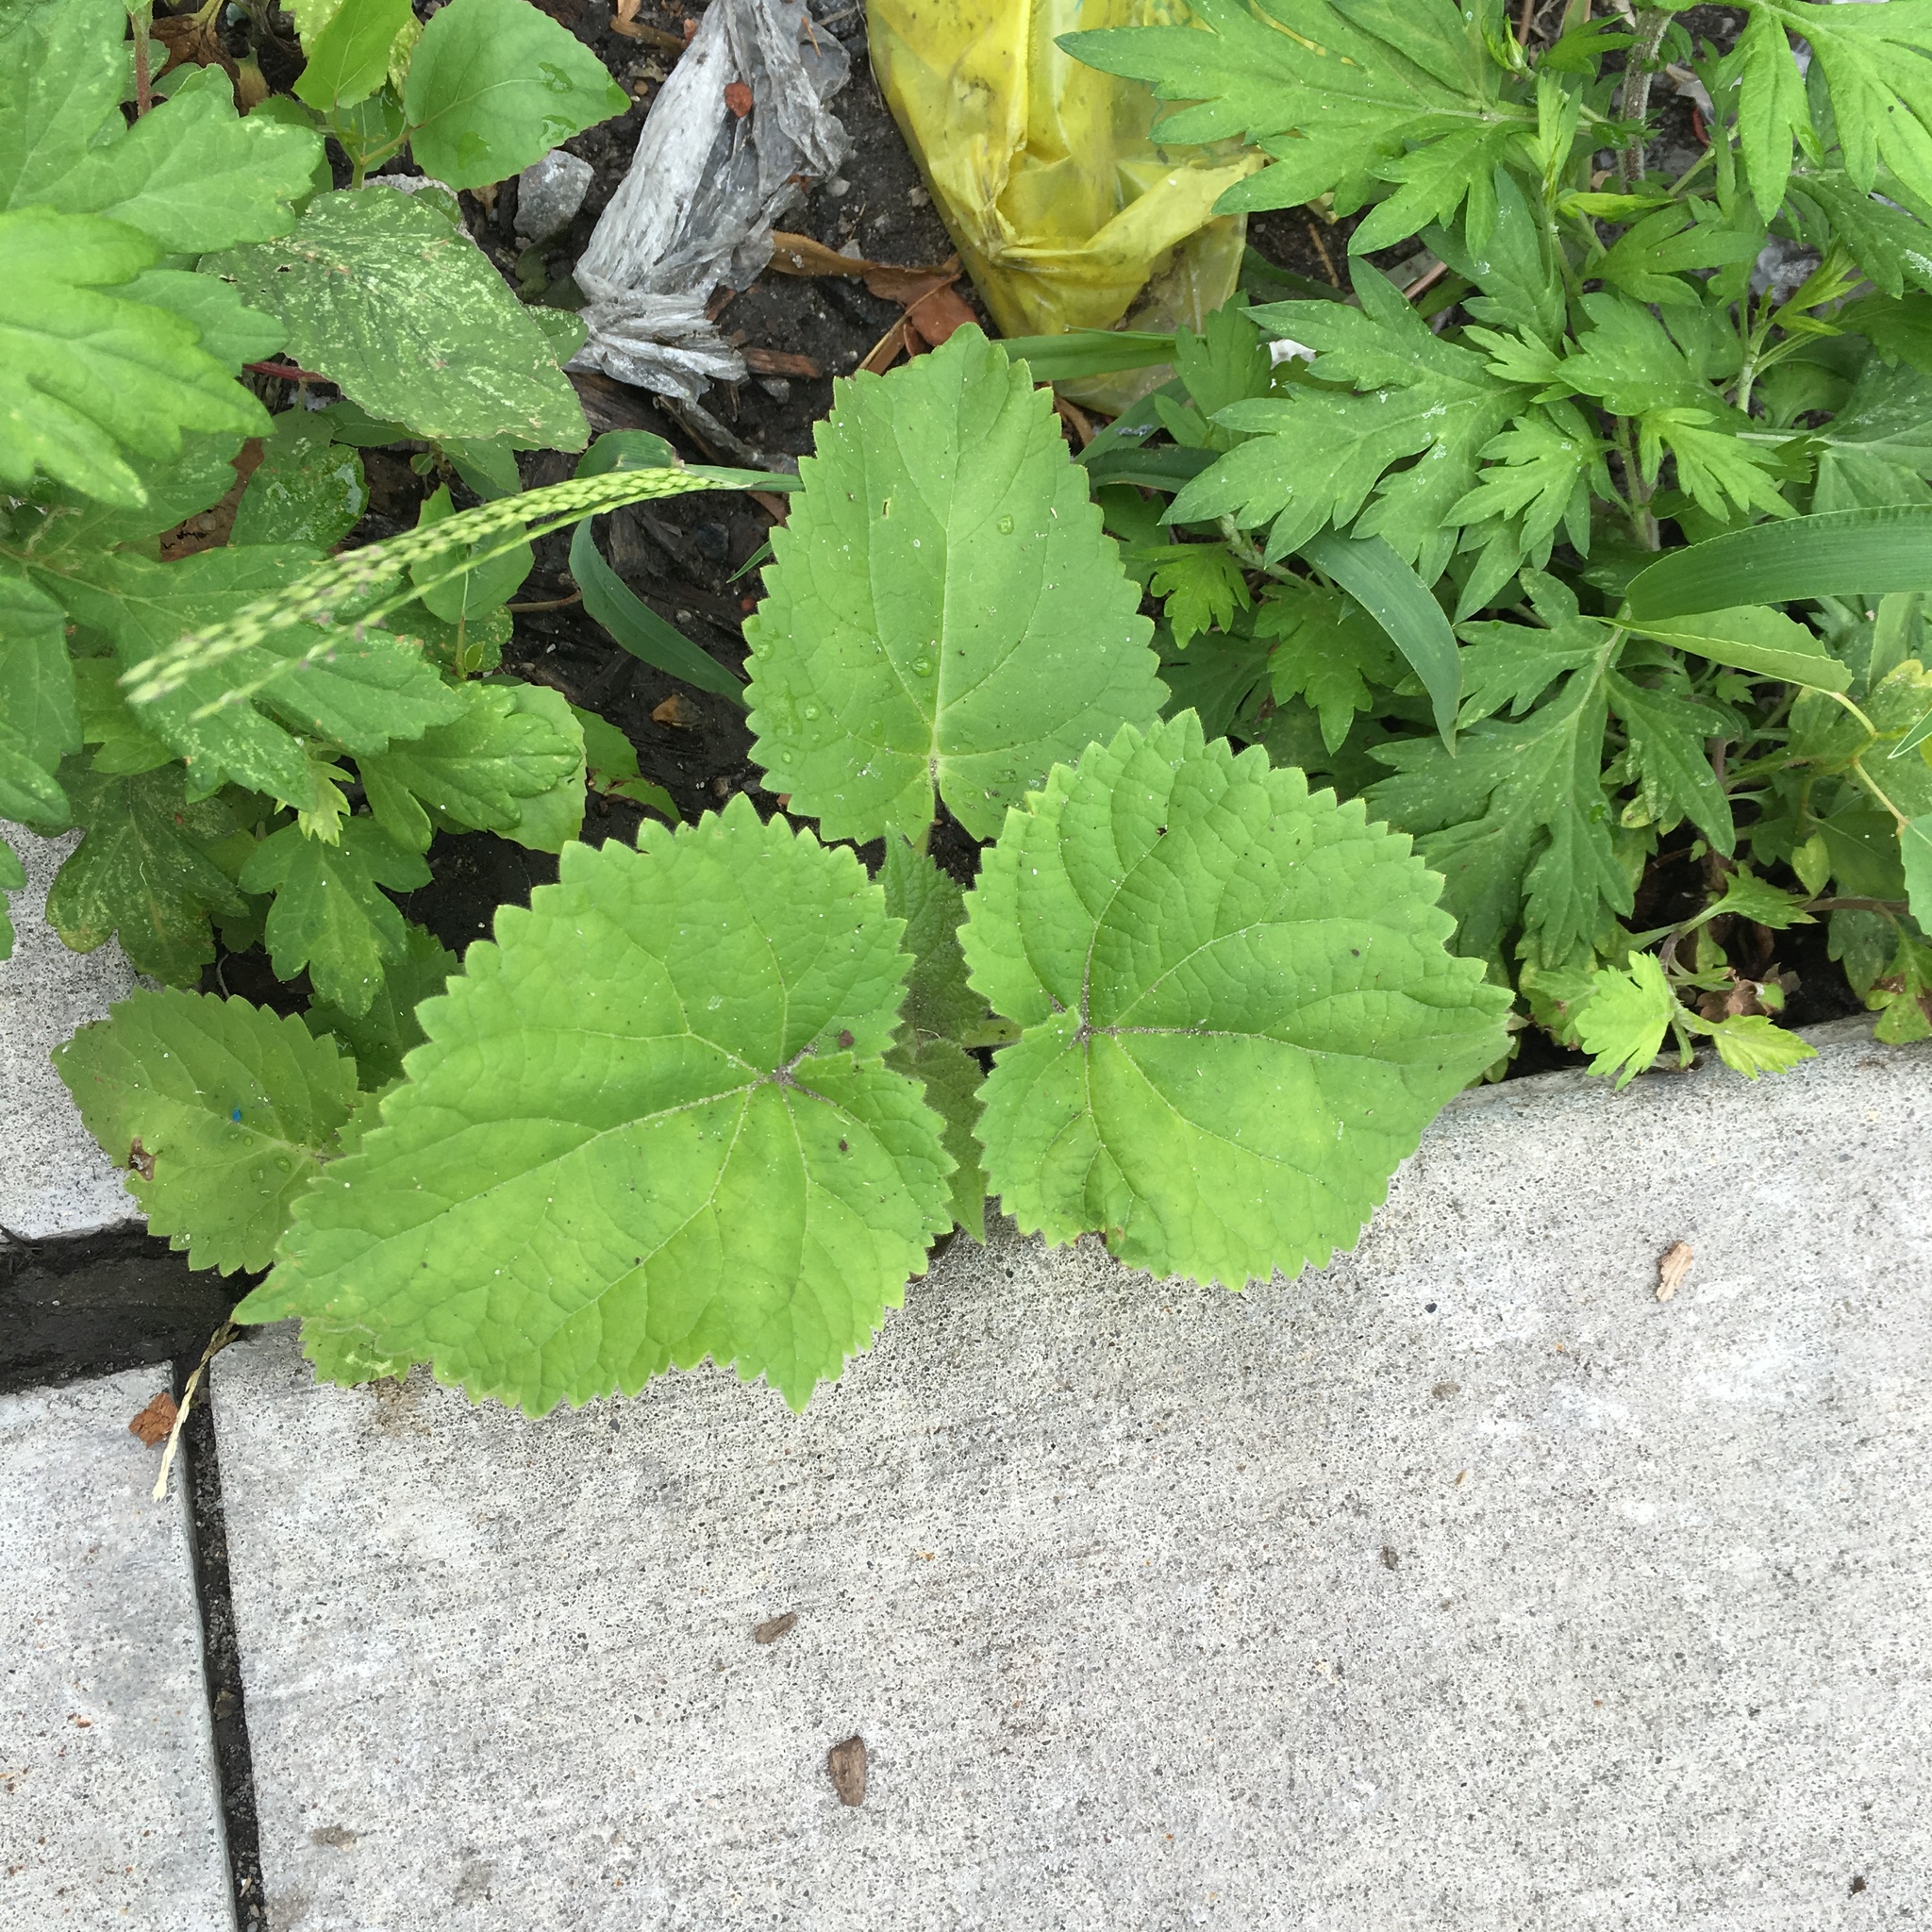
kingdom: Plantae
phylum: Tracheophyta
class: Magnoliopsida
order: Lamiales
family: Paulowniaceae
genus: Paulownia
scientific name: Paulownia tomentosa
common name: Foxglove-tree
